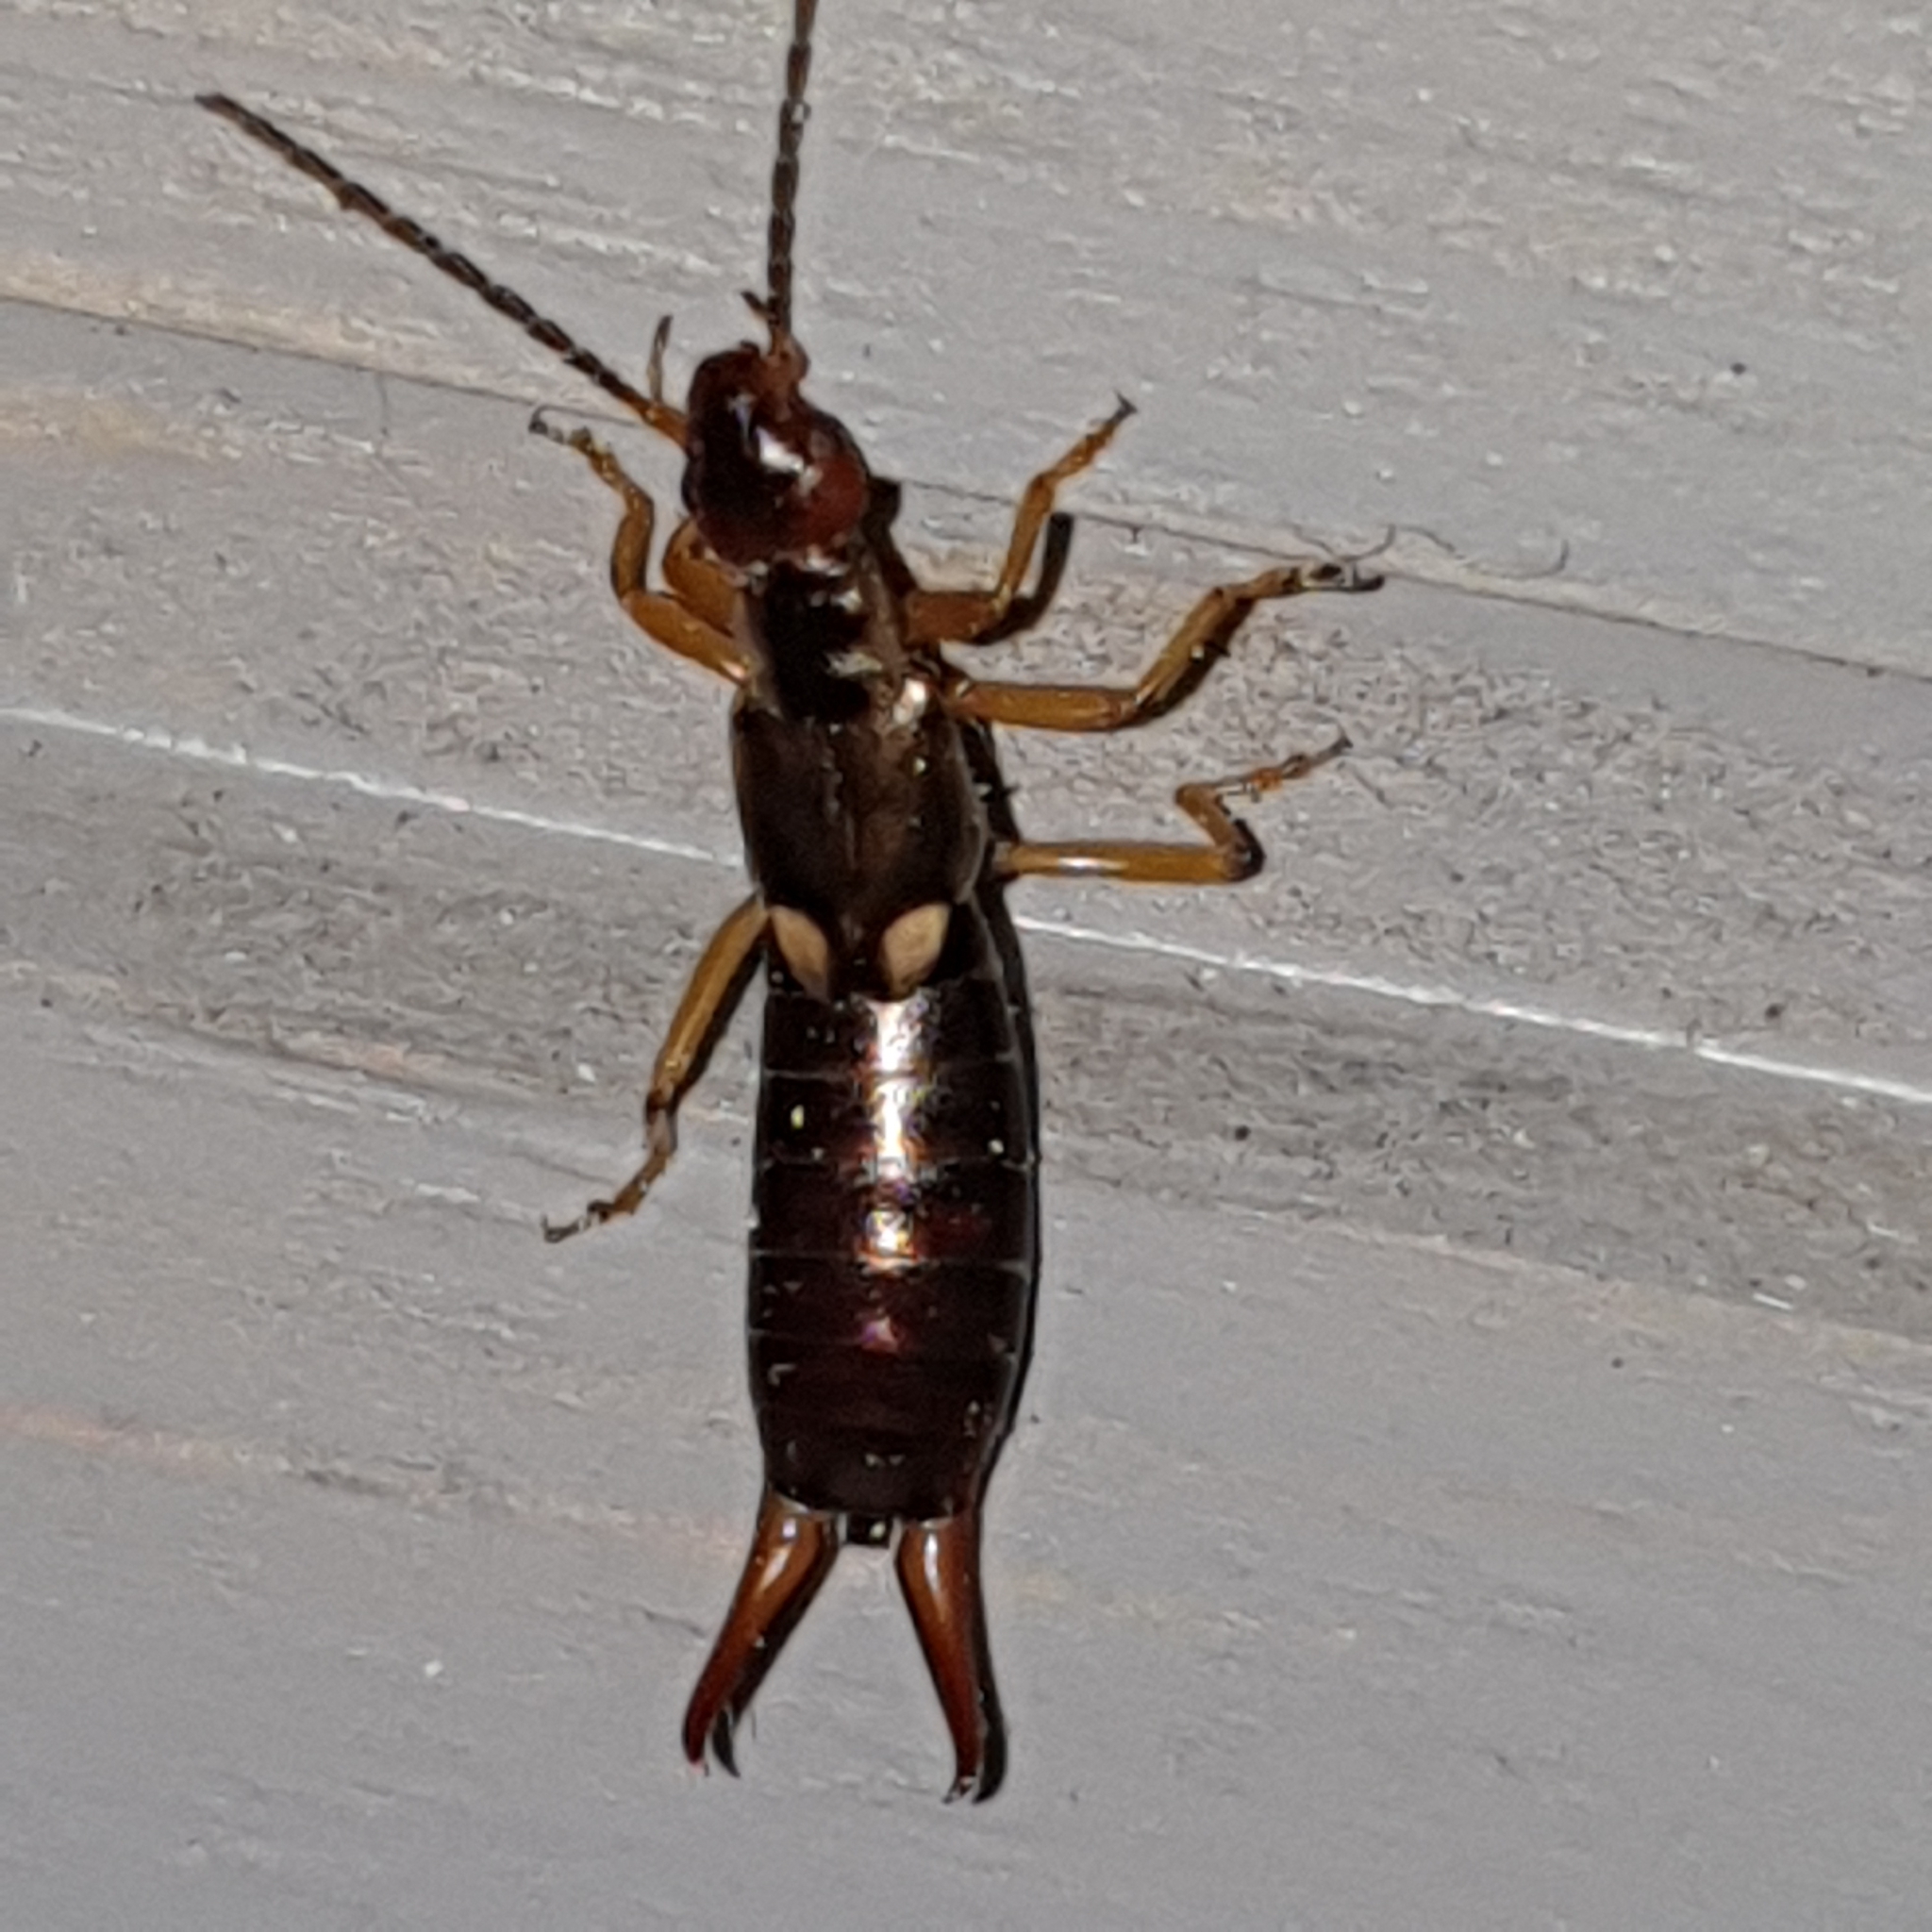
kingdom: Animalia
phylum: Arthropoda
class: Insecta
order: Dermaptera
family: Forficulidae
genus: Forficula
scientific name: Forficula
